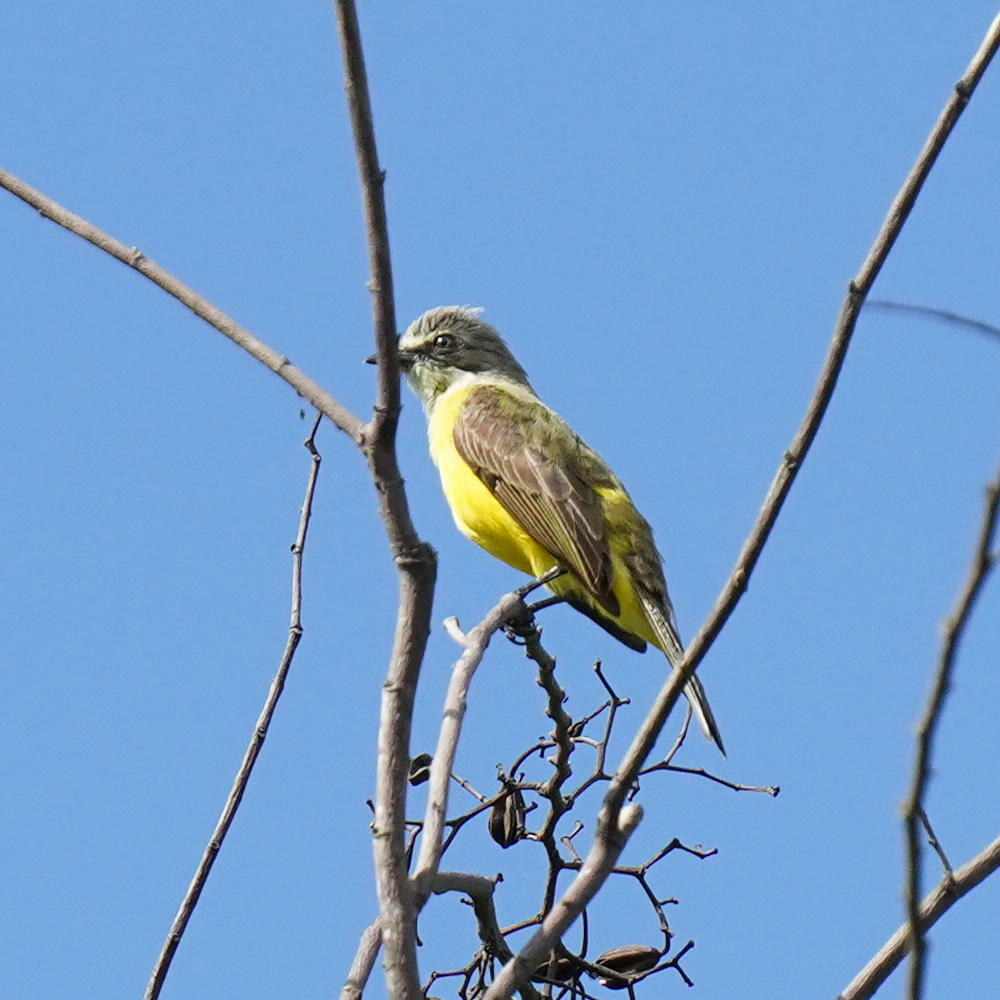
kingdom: Animalia
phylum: Chordata
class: Aves
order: Passeriformes
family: Tyrannidae
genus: Myiozetetes
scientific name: Myiozetetes granadensis
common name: Gray-capped flycatcher
